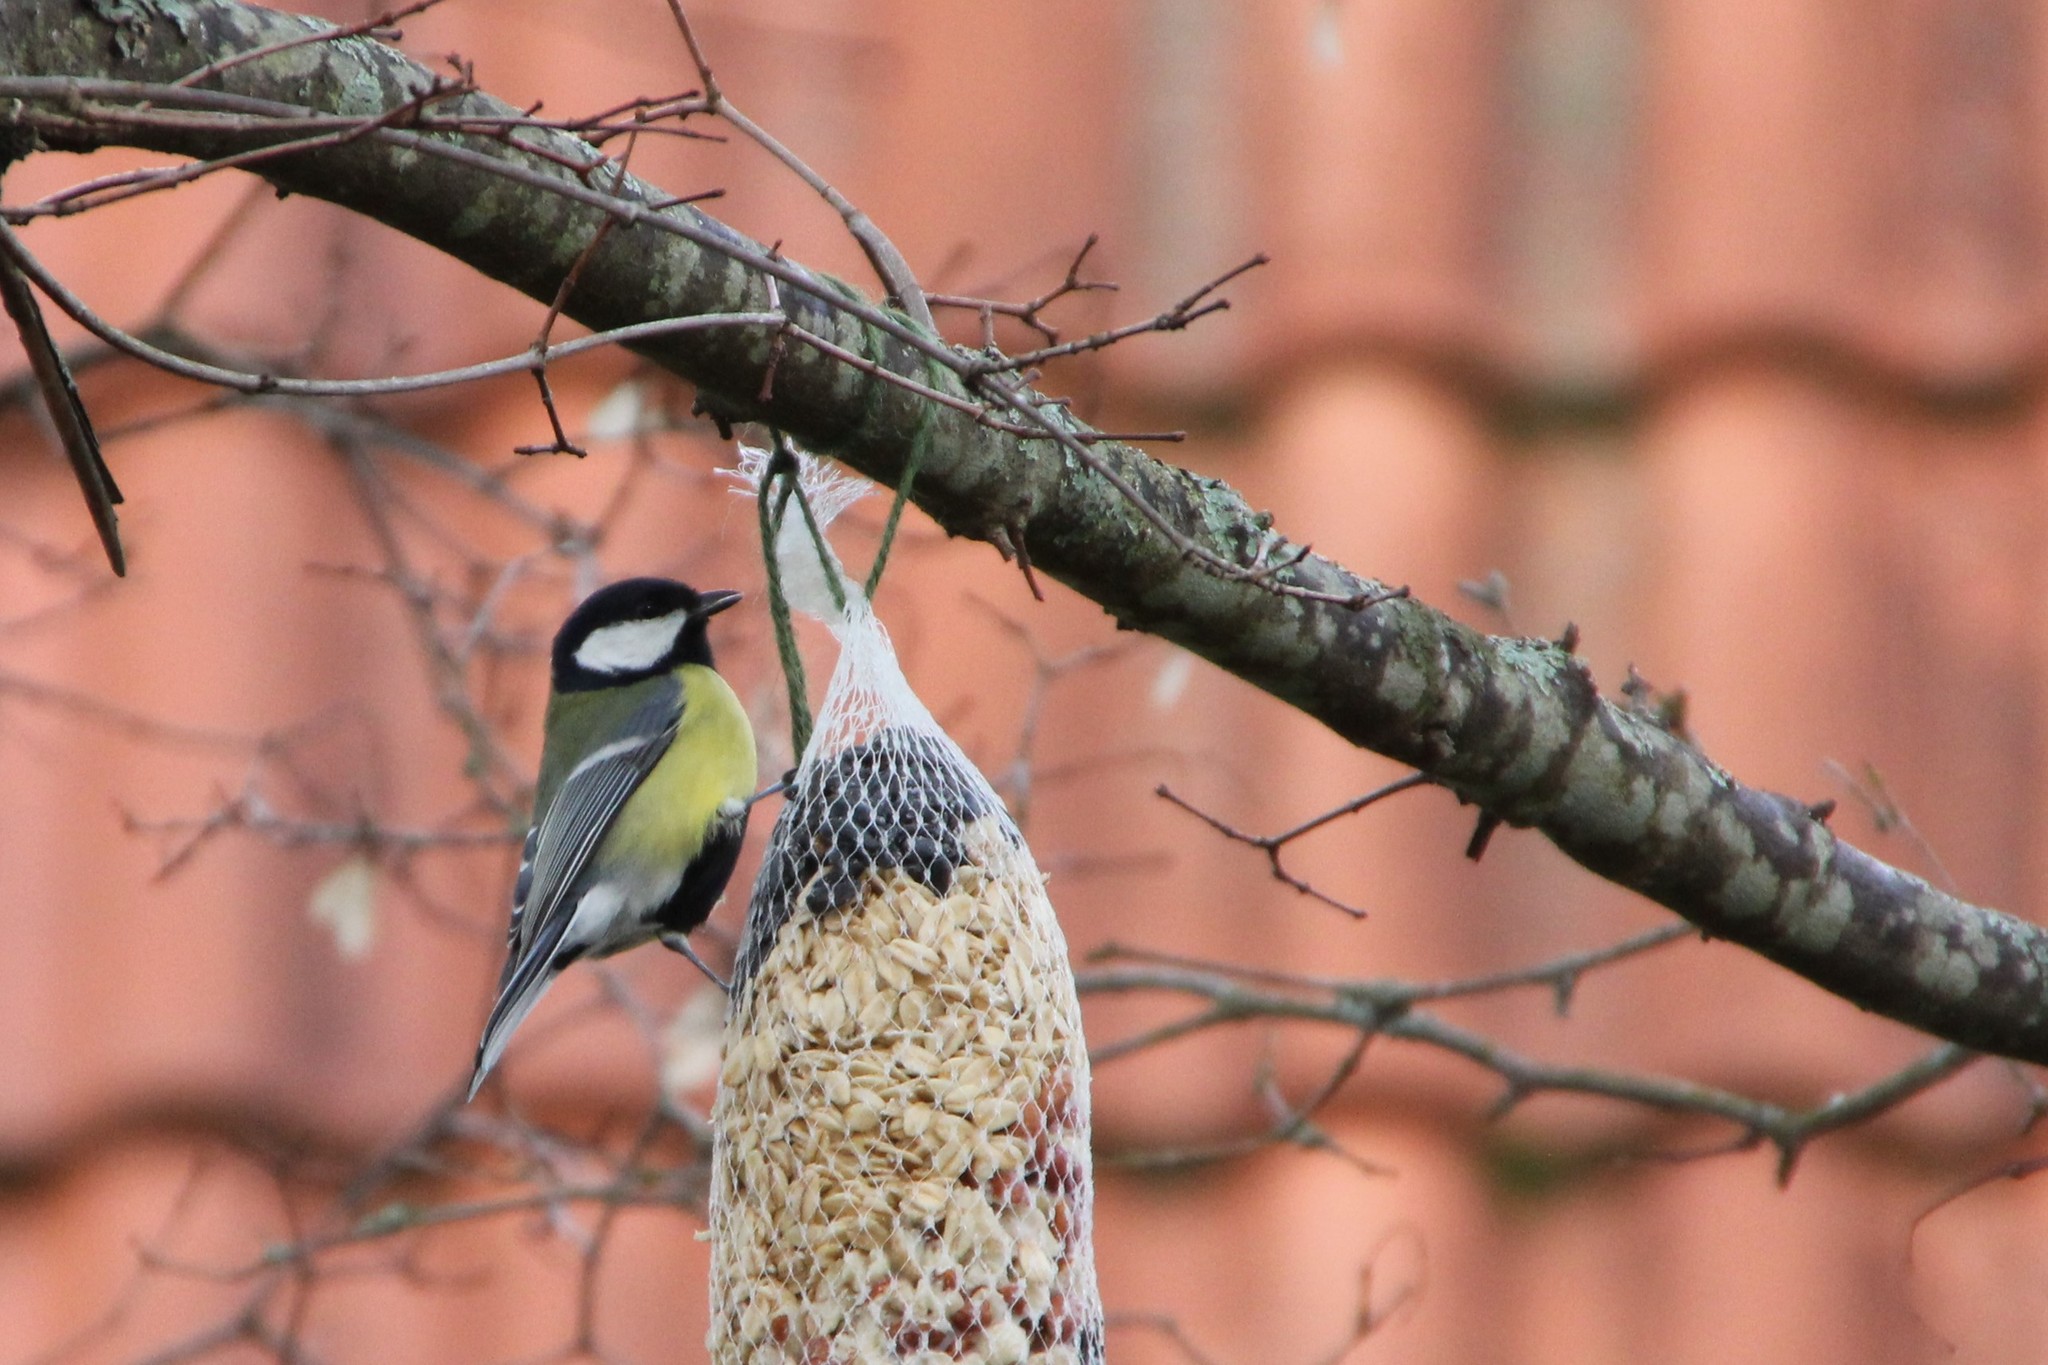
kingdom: Animalia
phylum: Chordata
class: Aves
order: Passeriformes
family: Paridae
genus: Parus
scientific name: Parus major
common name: Great tit
